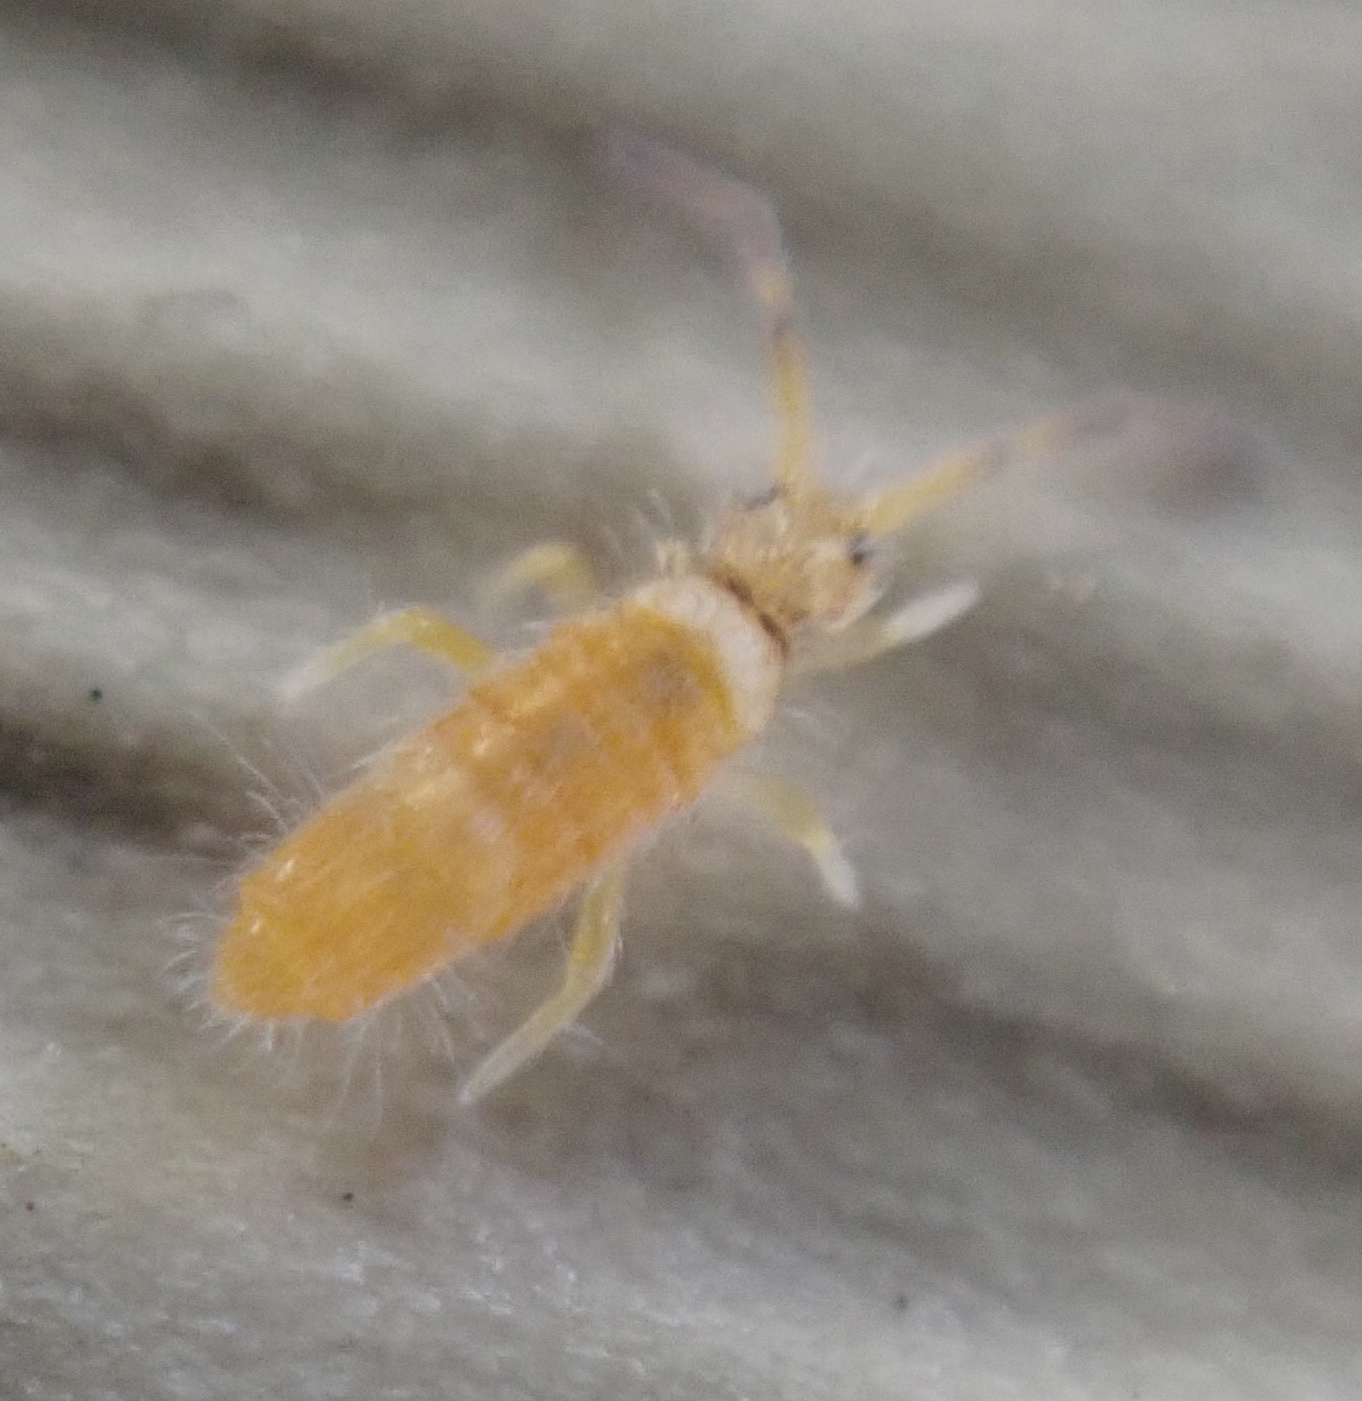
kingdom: Animalia
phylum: Arthropoda
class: Collembola
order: Entomobryomorpha
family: Entomobryidae
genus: Entomobrya
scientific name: Entomobrya atrocincta
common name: Springtail
